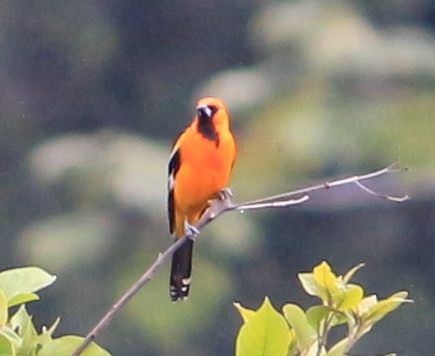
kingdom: Animalia
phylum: Chordata
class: Aves
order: Passeriformes
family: Icteridae
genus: Icterus
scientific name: Icterus gularis
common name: Altamira oriole
